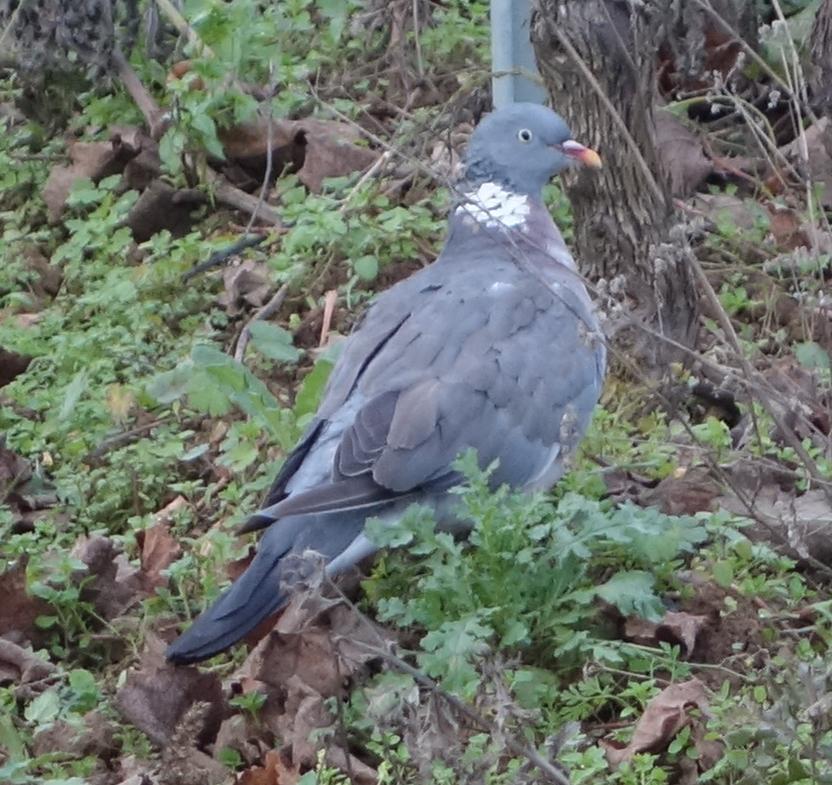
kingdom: Animalia
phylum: Chordata
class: Aves
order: Columbiformes
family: Columbidae
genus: Columba
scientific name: Columba palumbus
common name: Common wood pigeon
